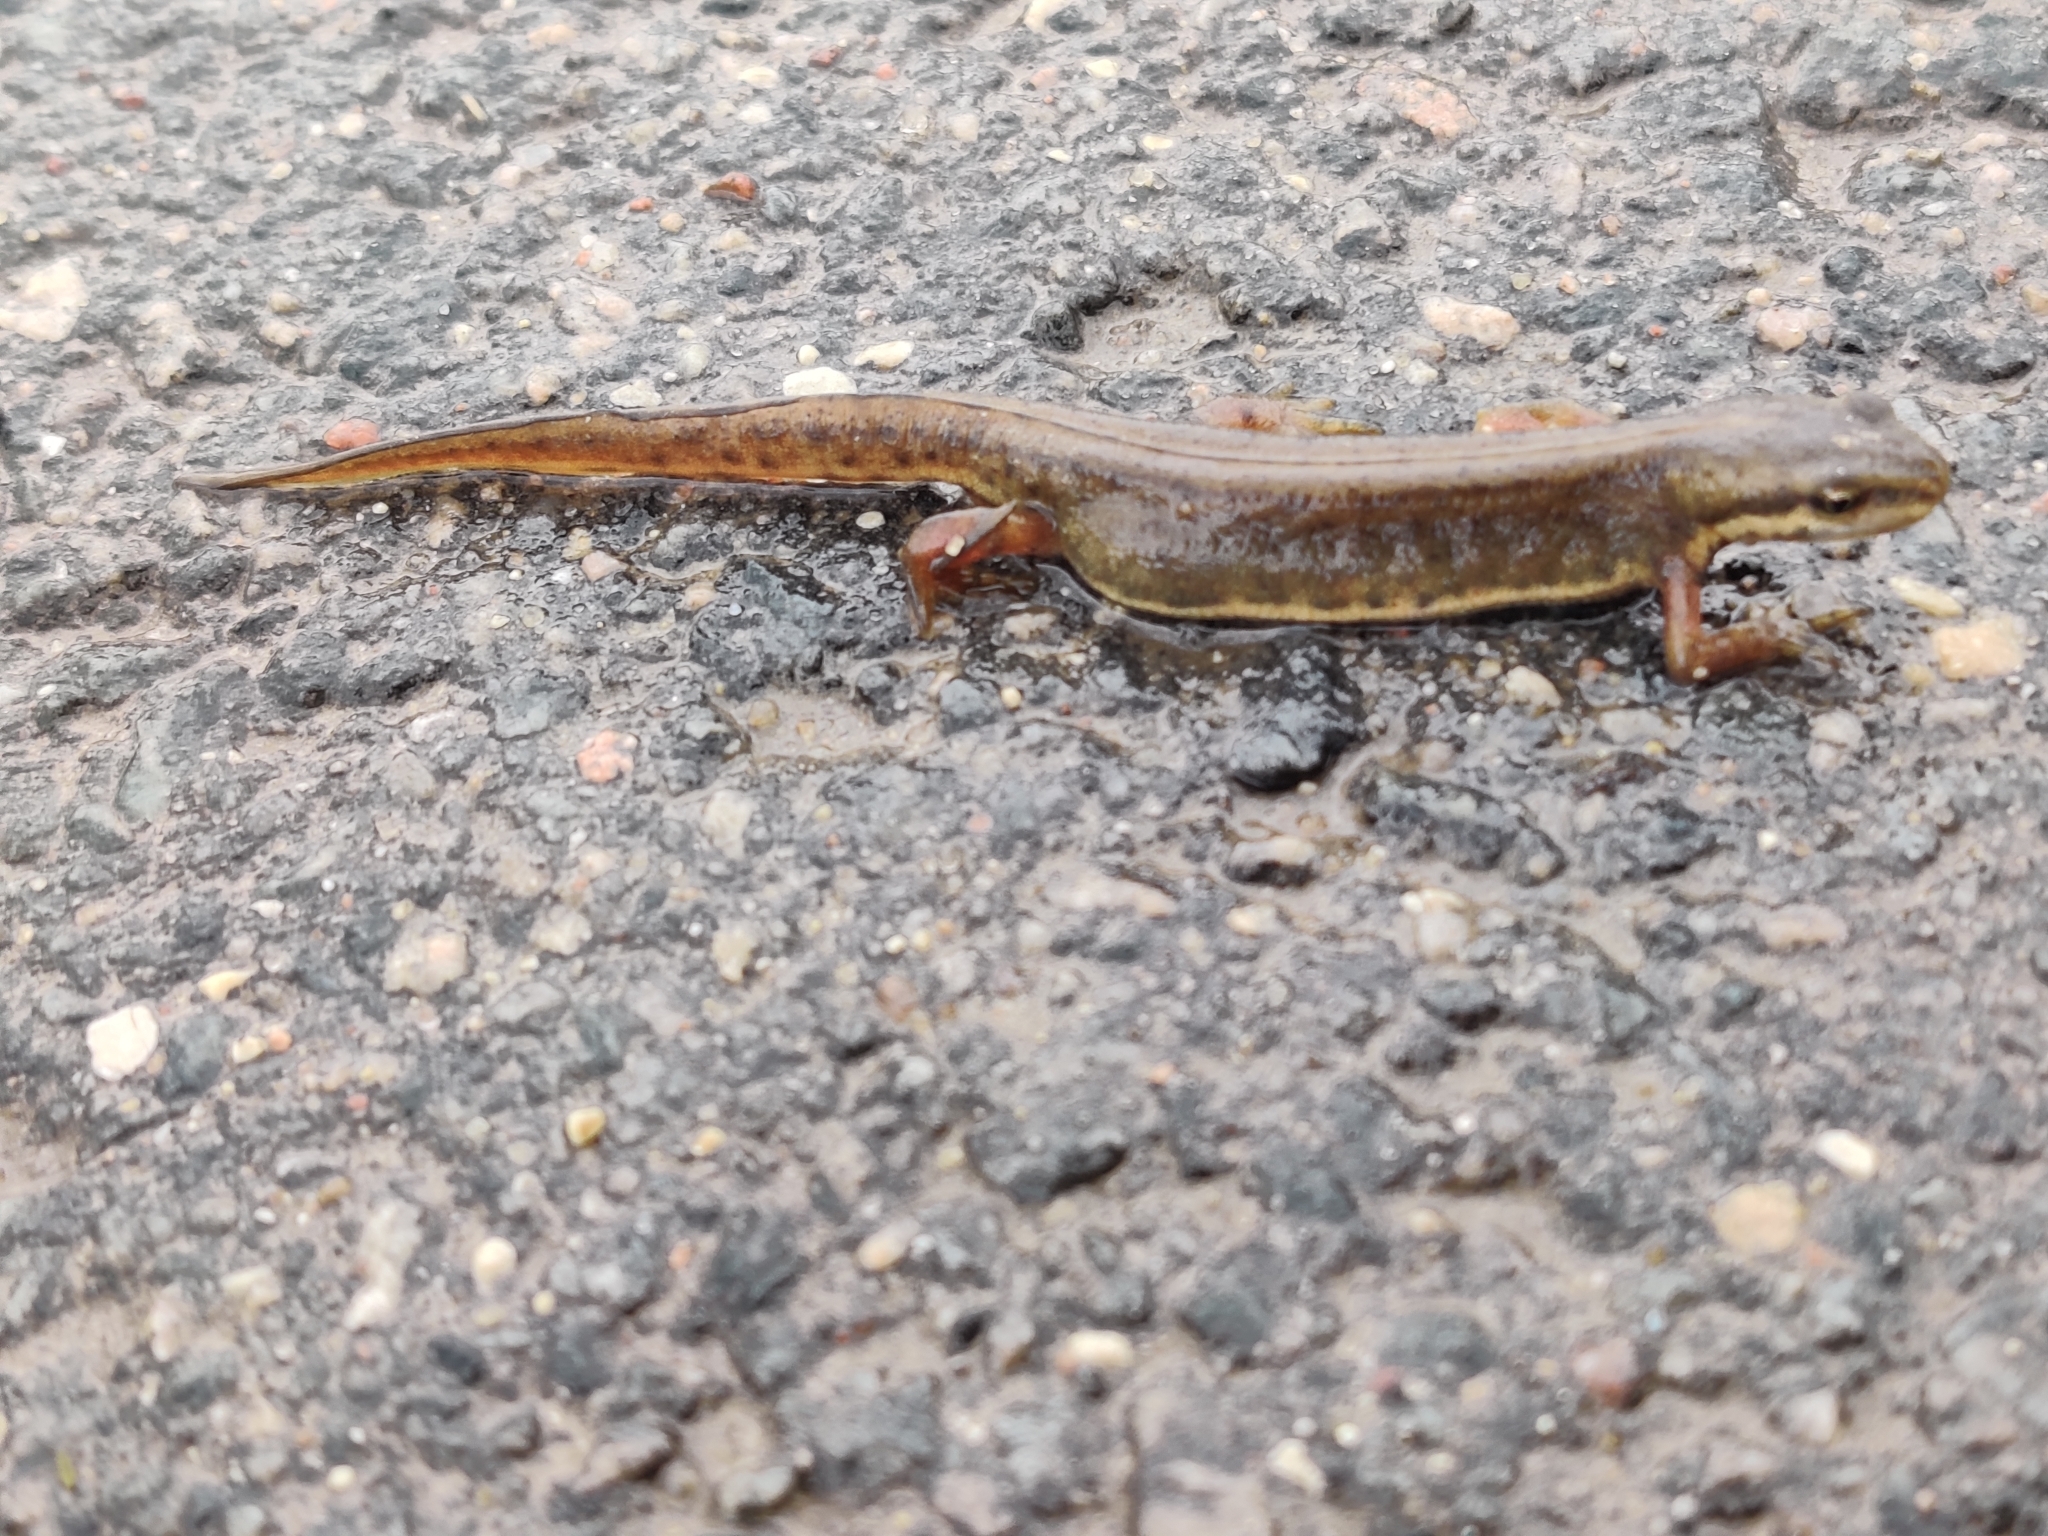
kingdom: Animalia
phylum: Chordata
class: Amphibia
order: Caudata
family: Salamandridae
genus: Lissotriton
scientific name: Lissotriton vulgaris
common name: Smooth newt
